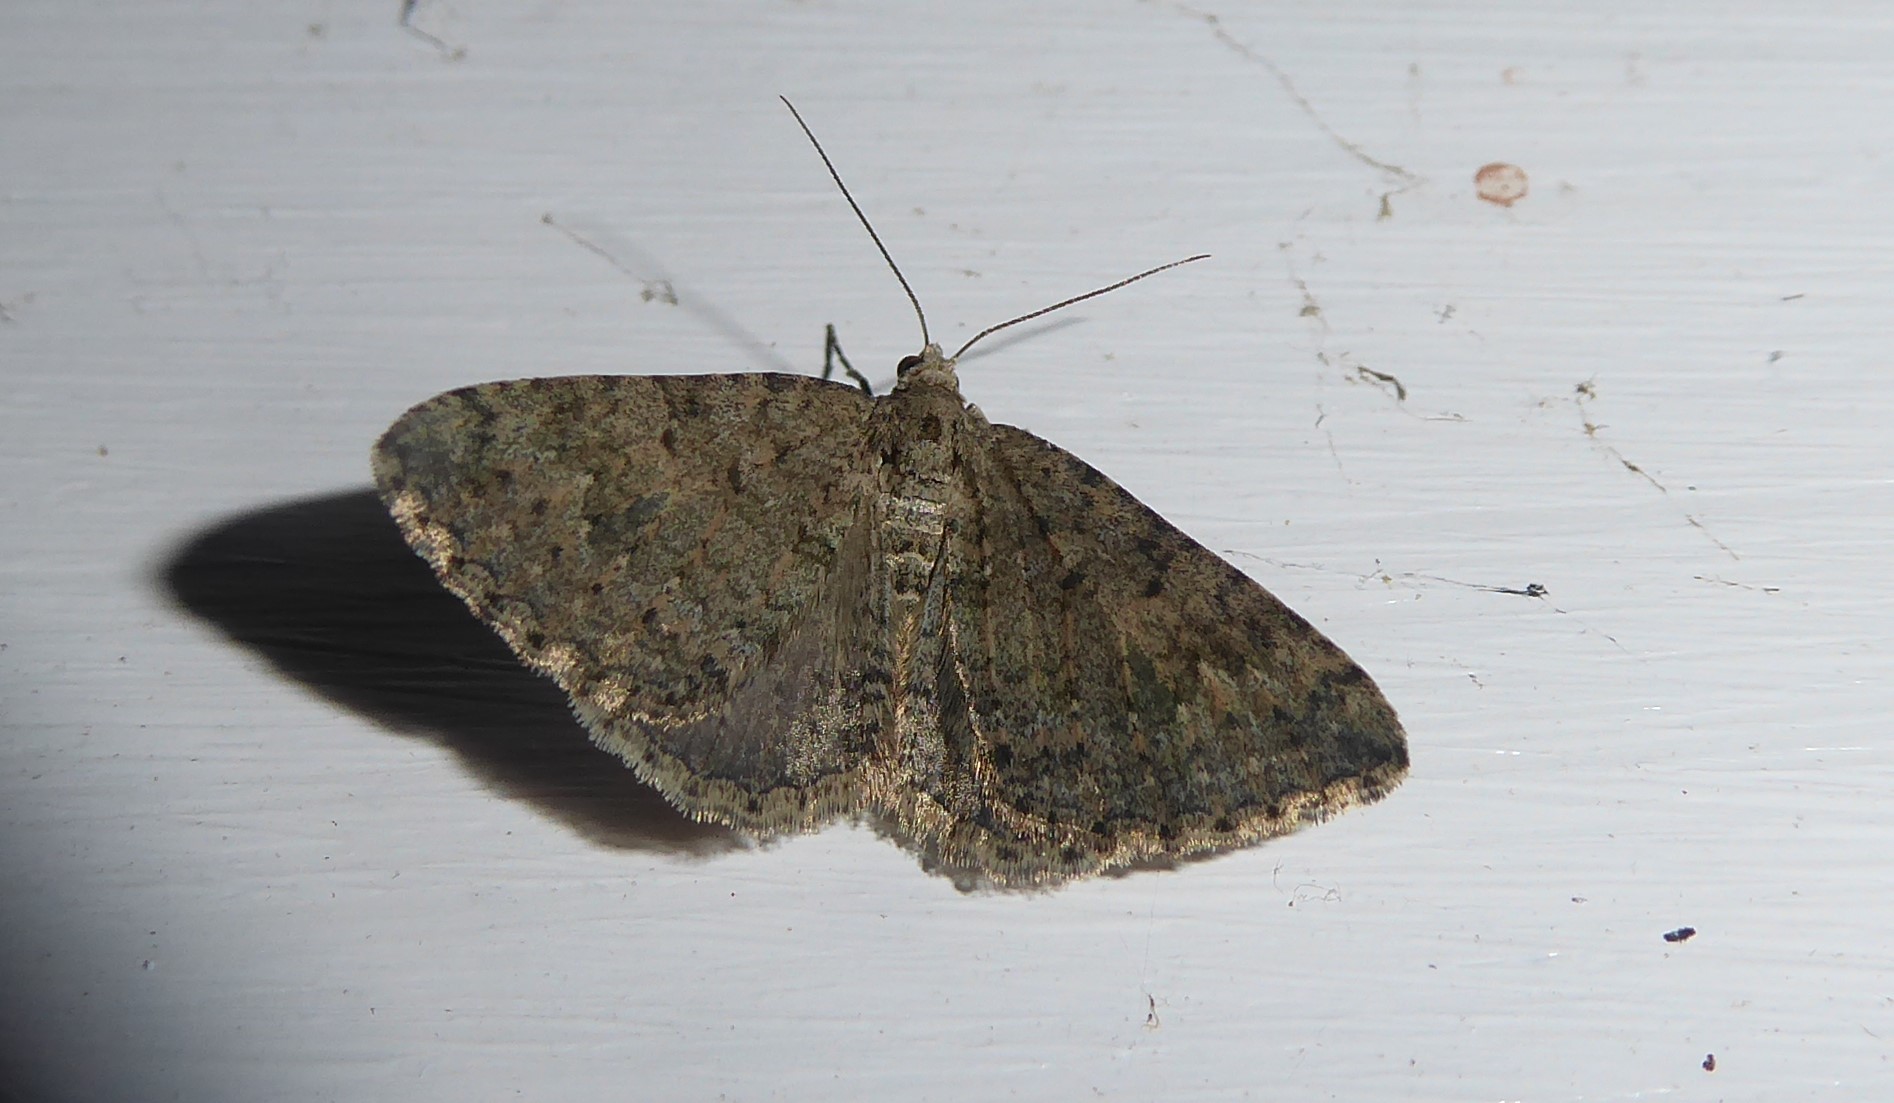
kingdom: Animalia
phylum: Arthropoda
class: Insecta
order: Lepidoptera
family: Geometridae
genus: Helastia
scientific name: Helastia corcularia
